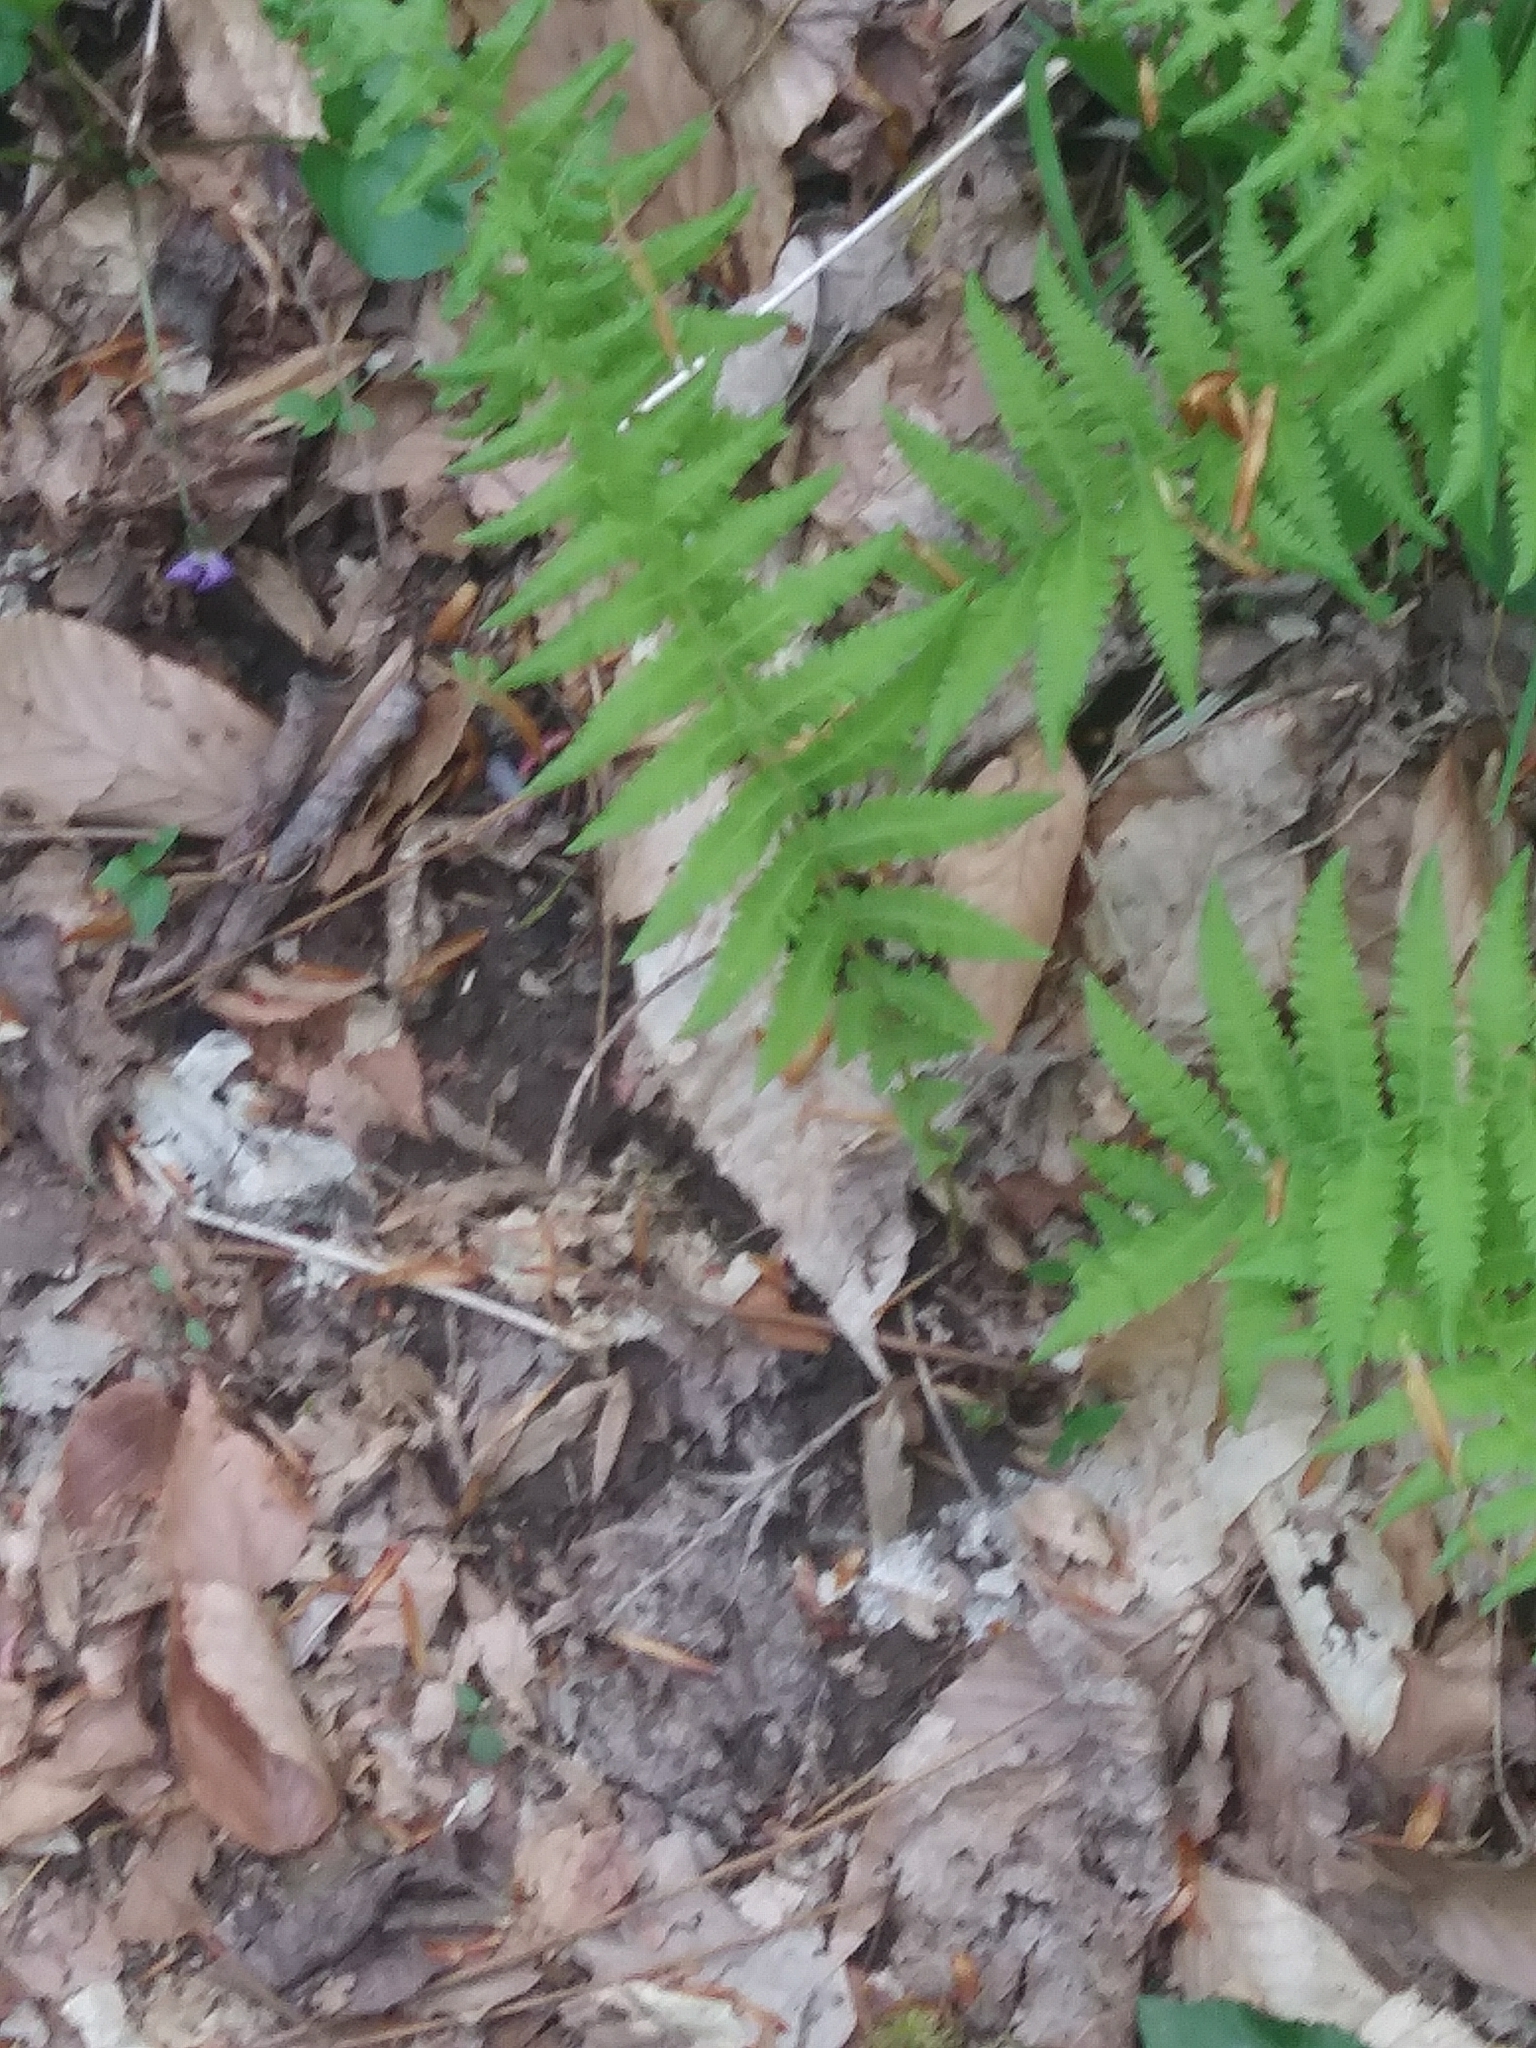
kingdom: Plantae
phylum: Tracheophyta
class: Polypodiopsida
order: Polypodiales
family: Thelypteridaceae
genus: Amauropelta
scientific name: Amauropelta noveboracensis
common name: New york fern
